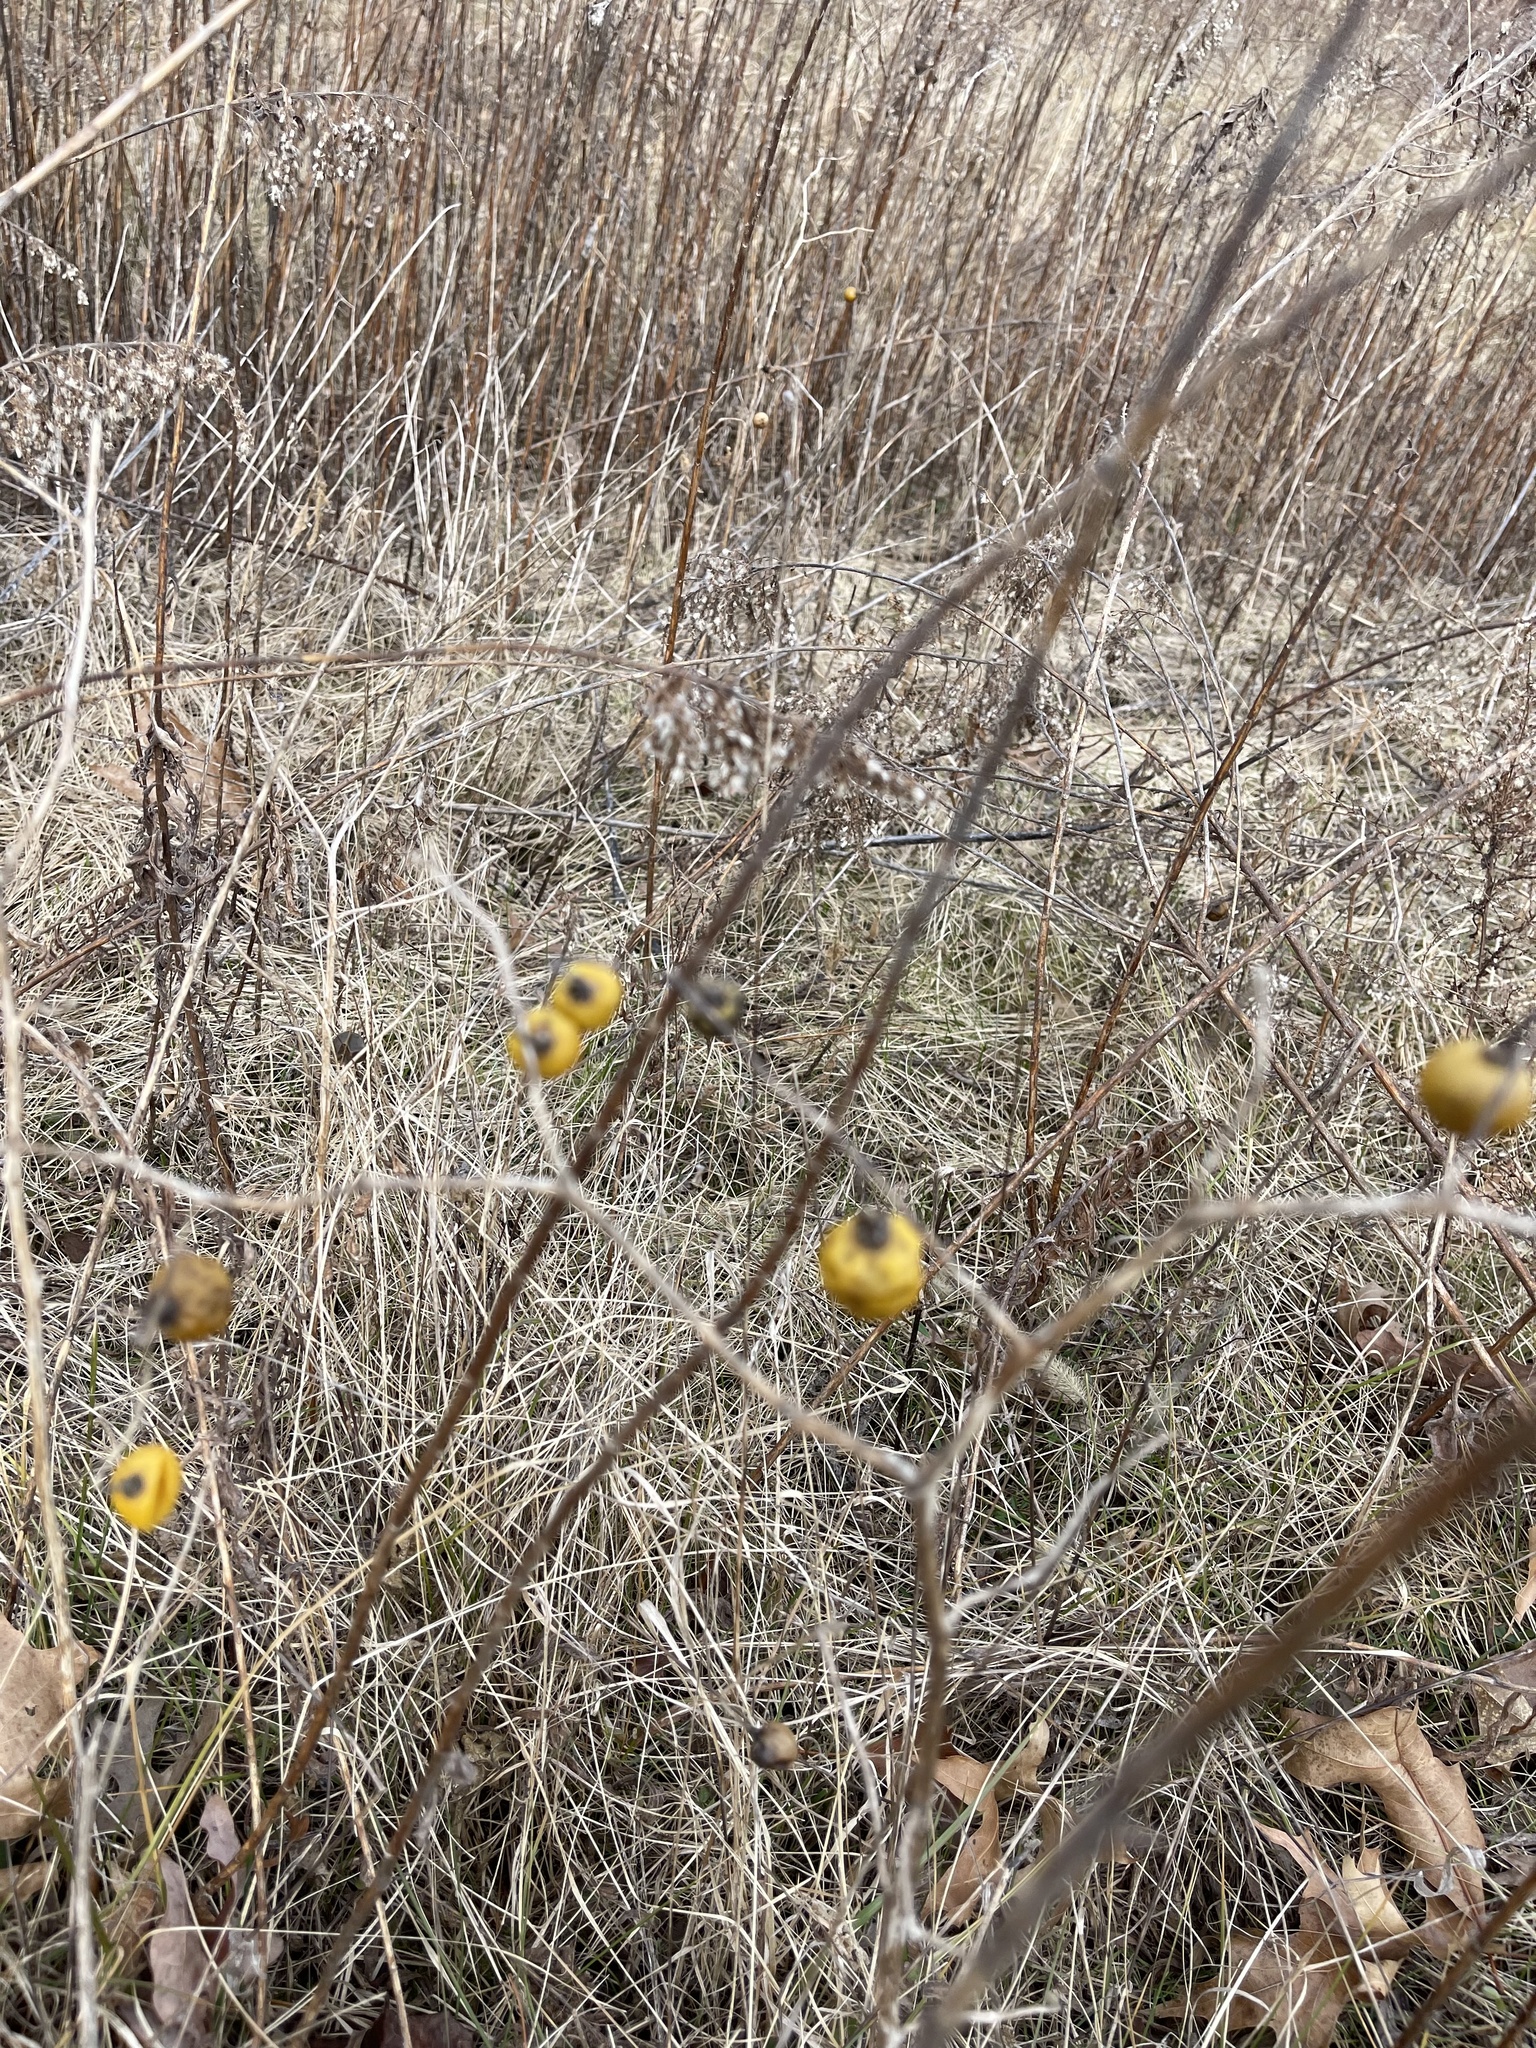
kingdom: Plantae
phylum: Tracheophyta
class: Magnoliopsida
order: Solanales
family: Solanaceae
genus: Solanum
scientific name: Solanum carolinense
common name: Horse-nettle
